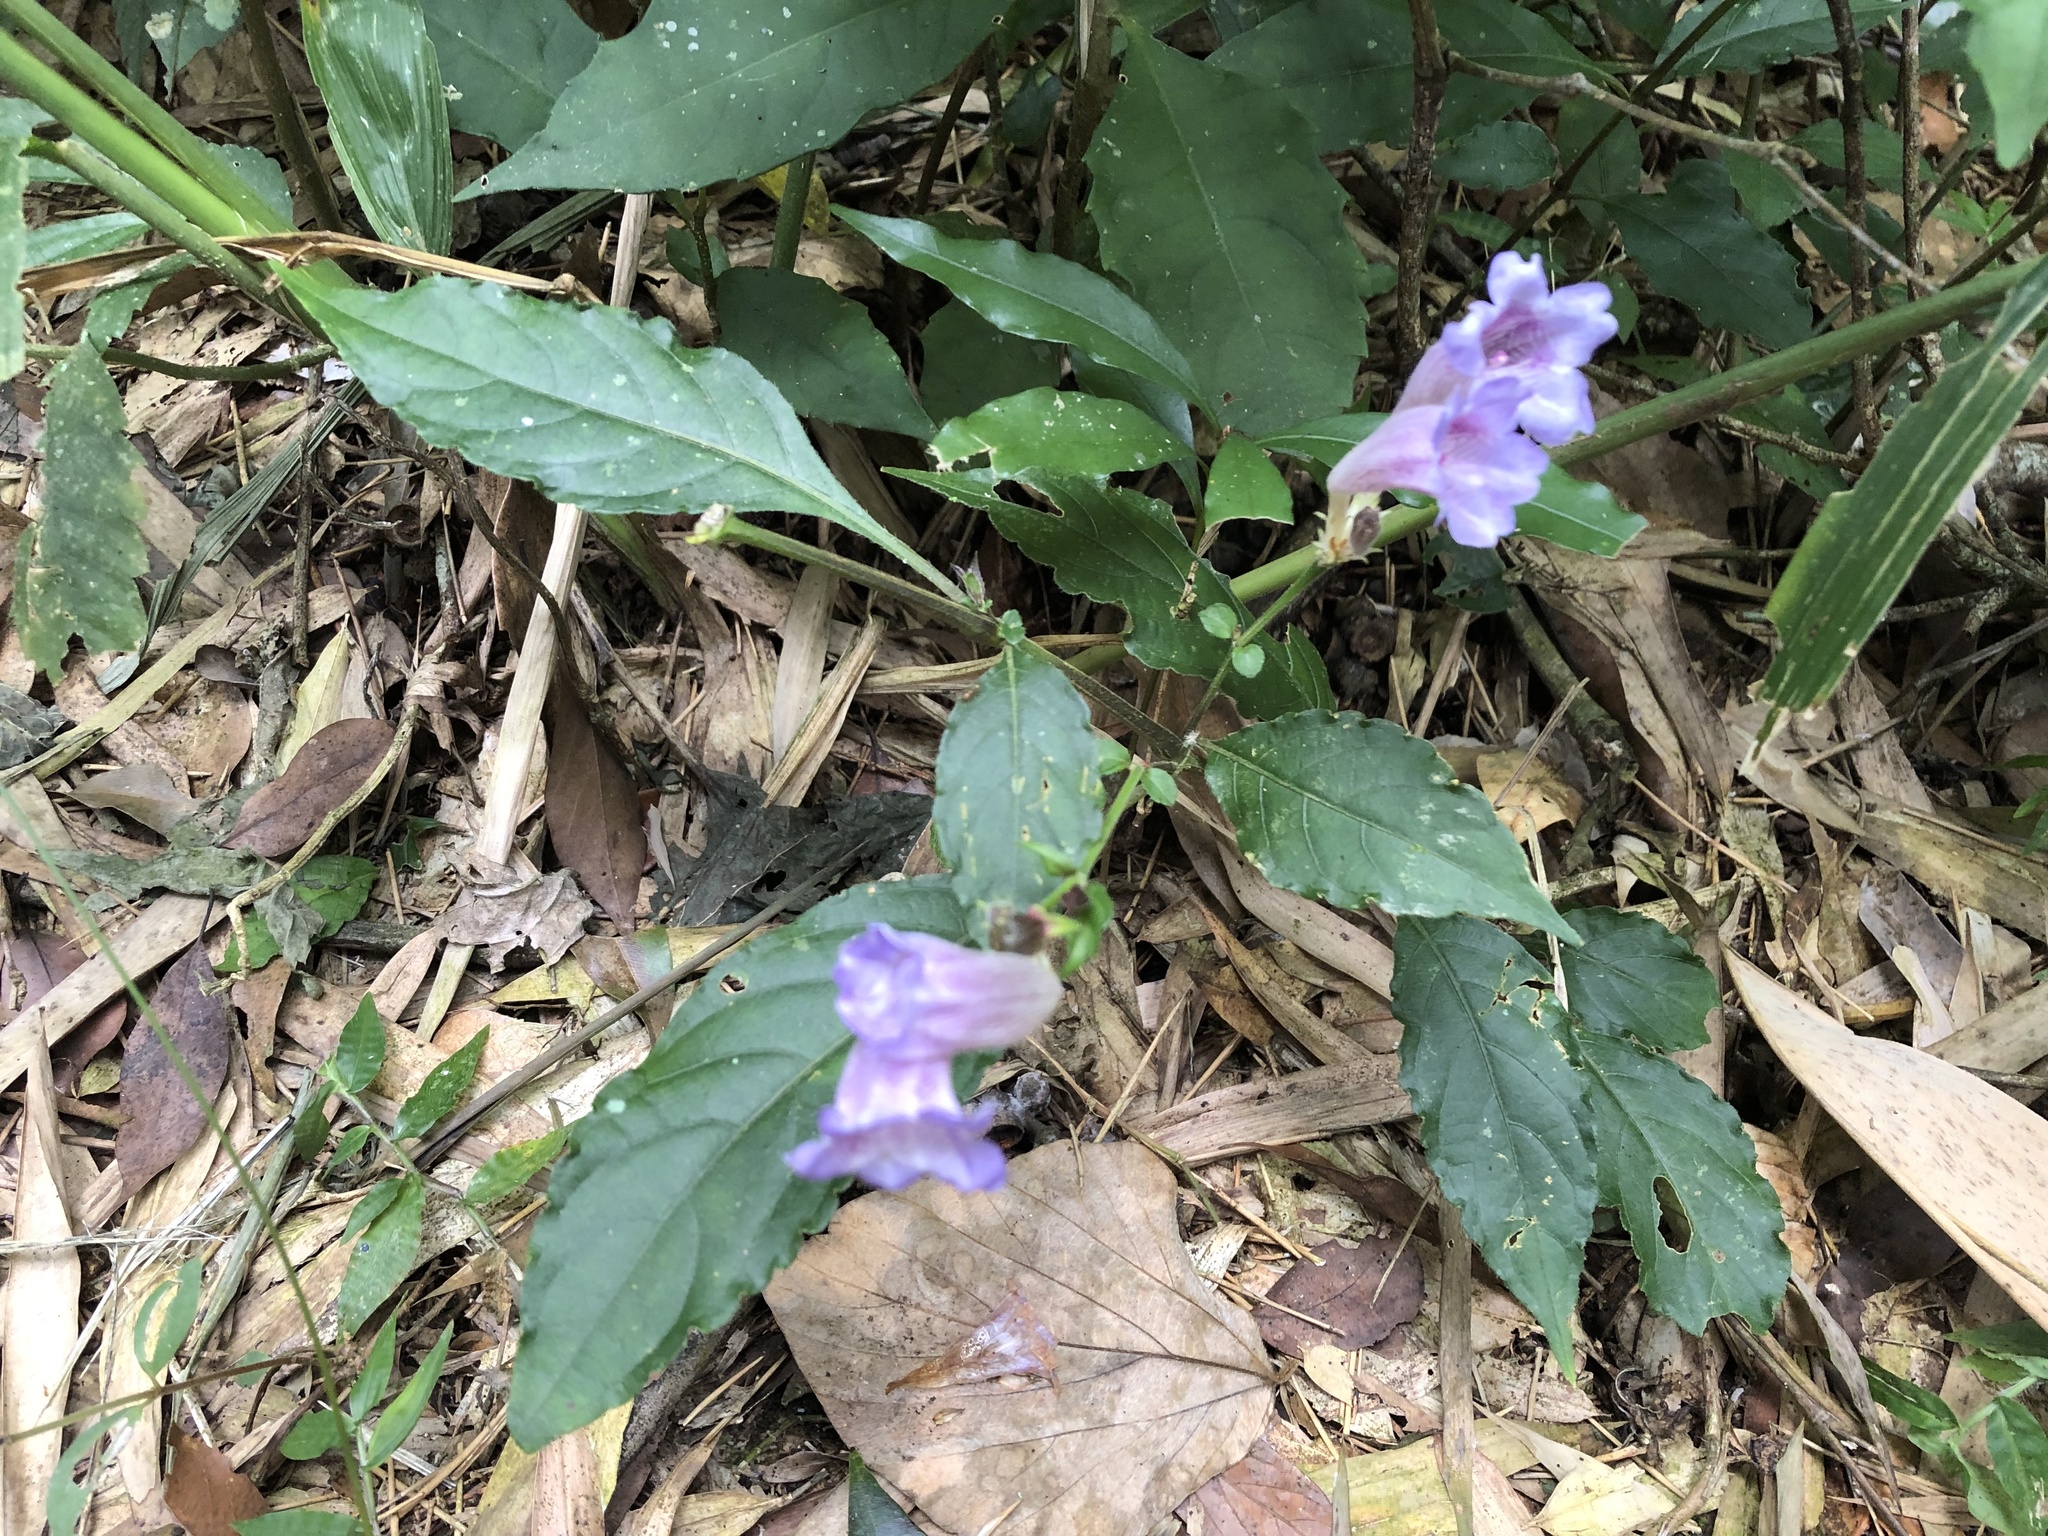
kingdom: Plantae
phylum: Tracheophyta
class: Magnoliopsida
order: Lamiales
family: Acanthaceae
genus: Strobilanthes
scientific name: Strobilanthes formosana
